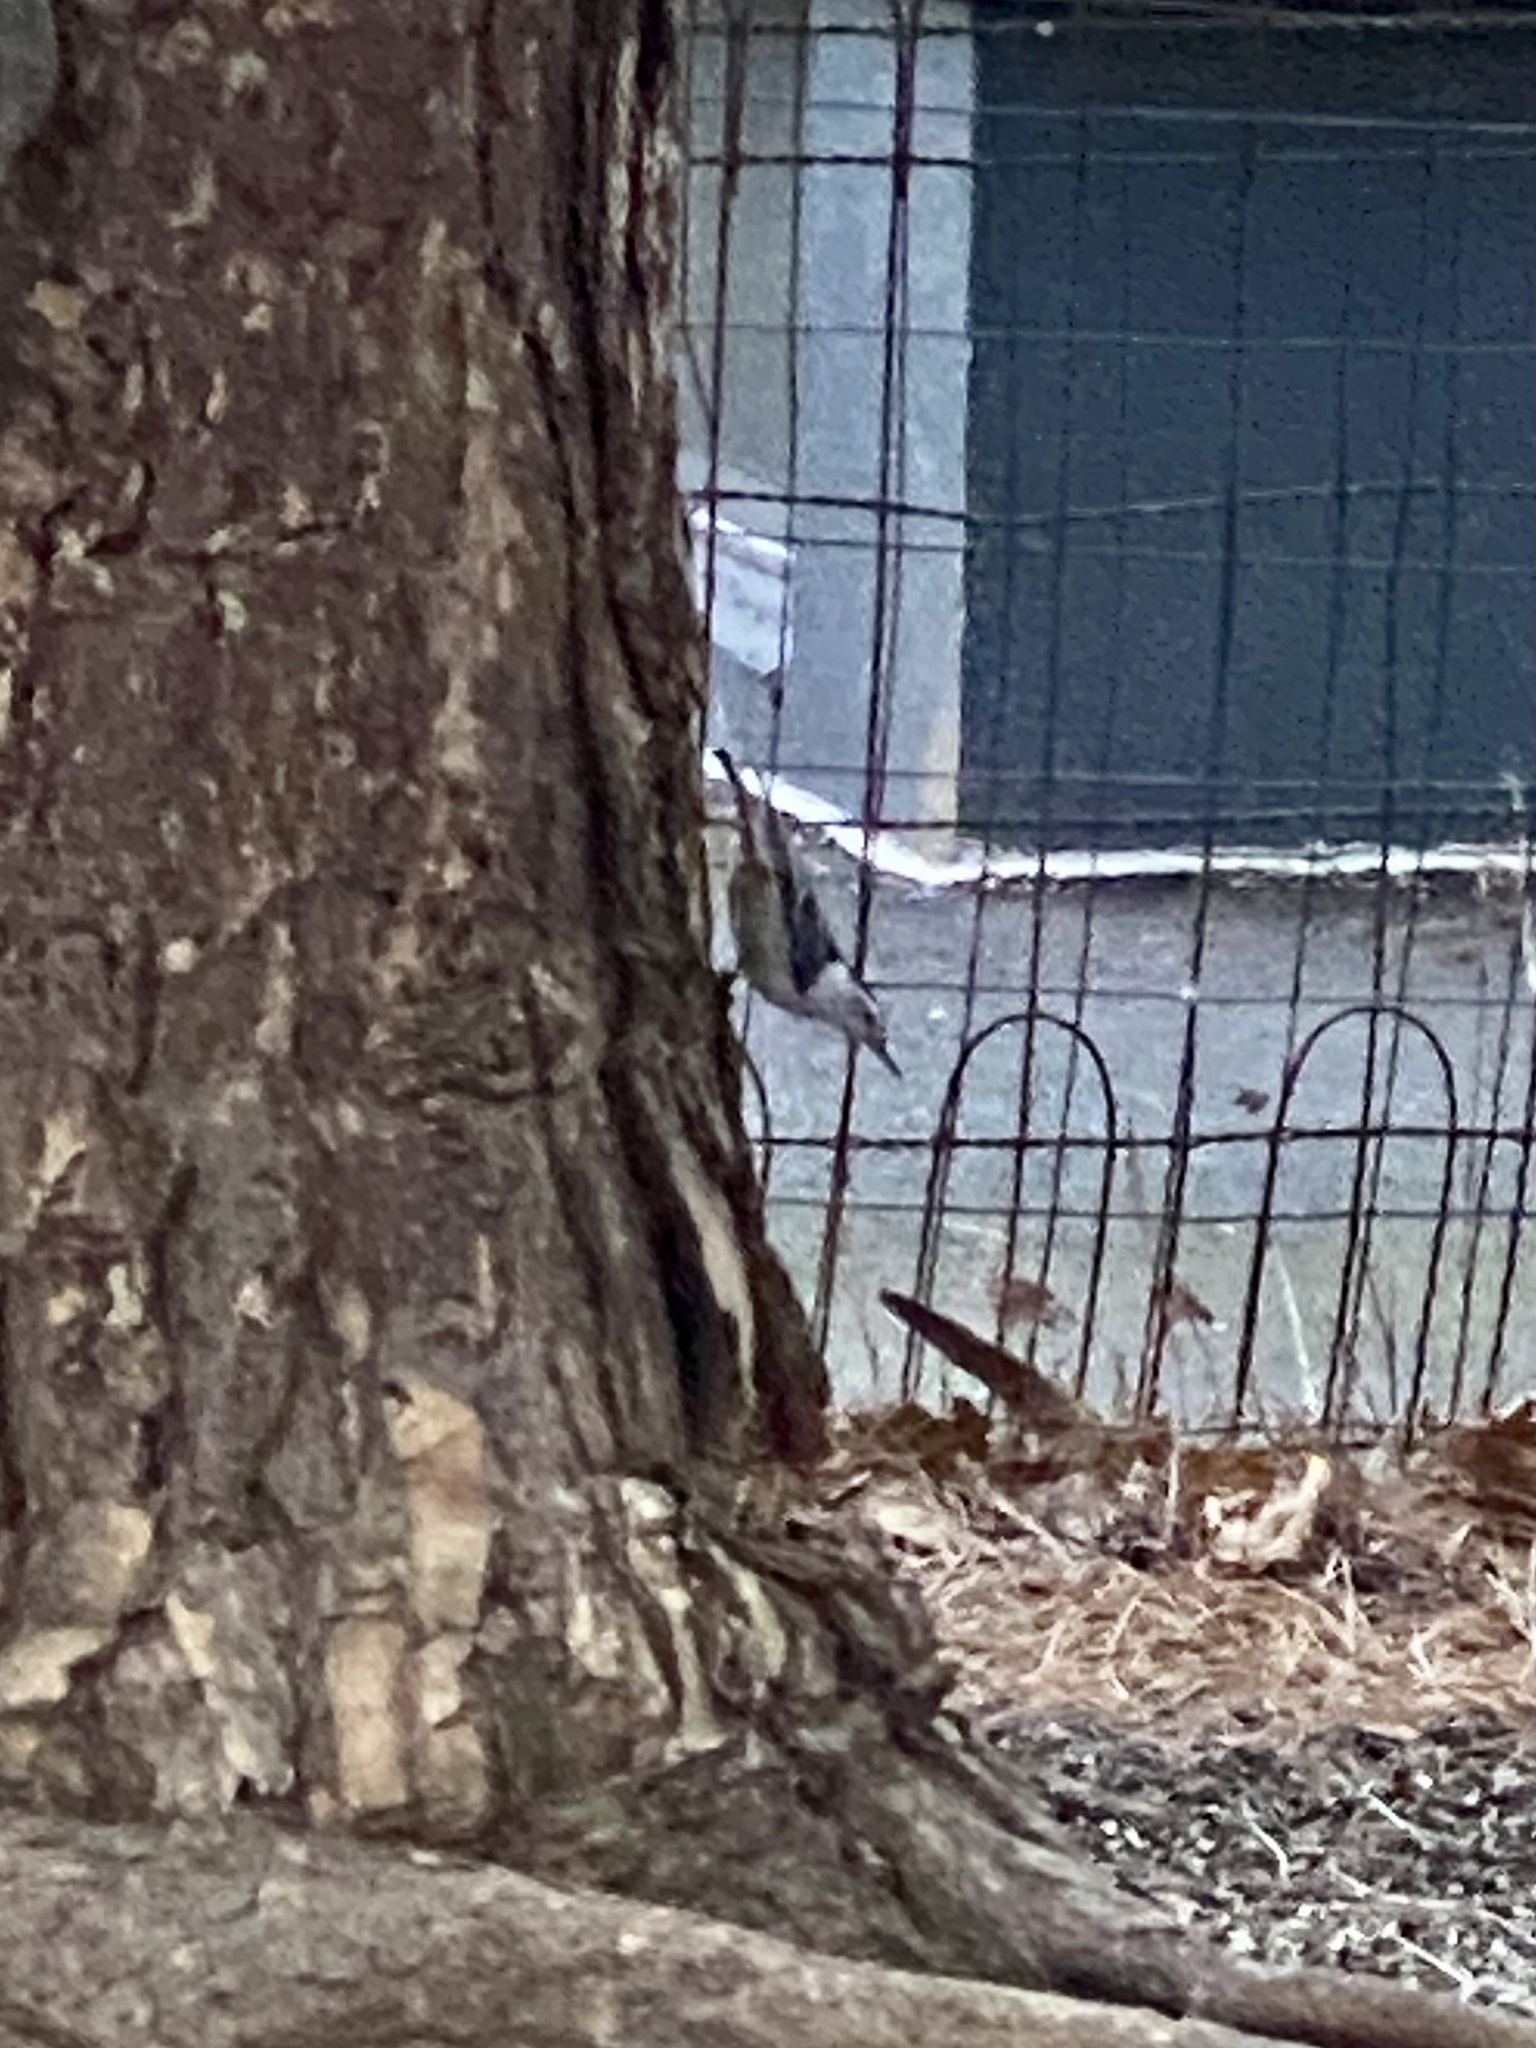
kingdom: Animalia
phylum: Chordata
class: Aves
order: Passeriformes
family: Sittidae
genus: Sitta
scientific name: Sitta carolinensis
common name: White-breasted nuthatch
